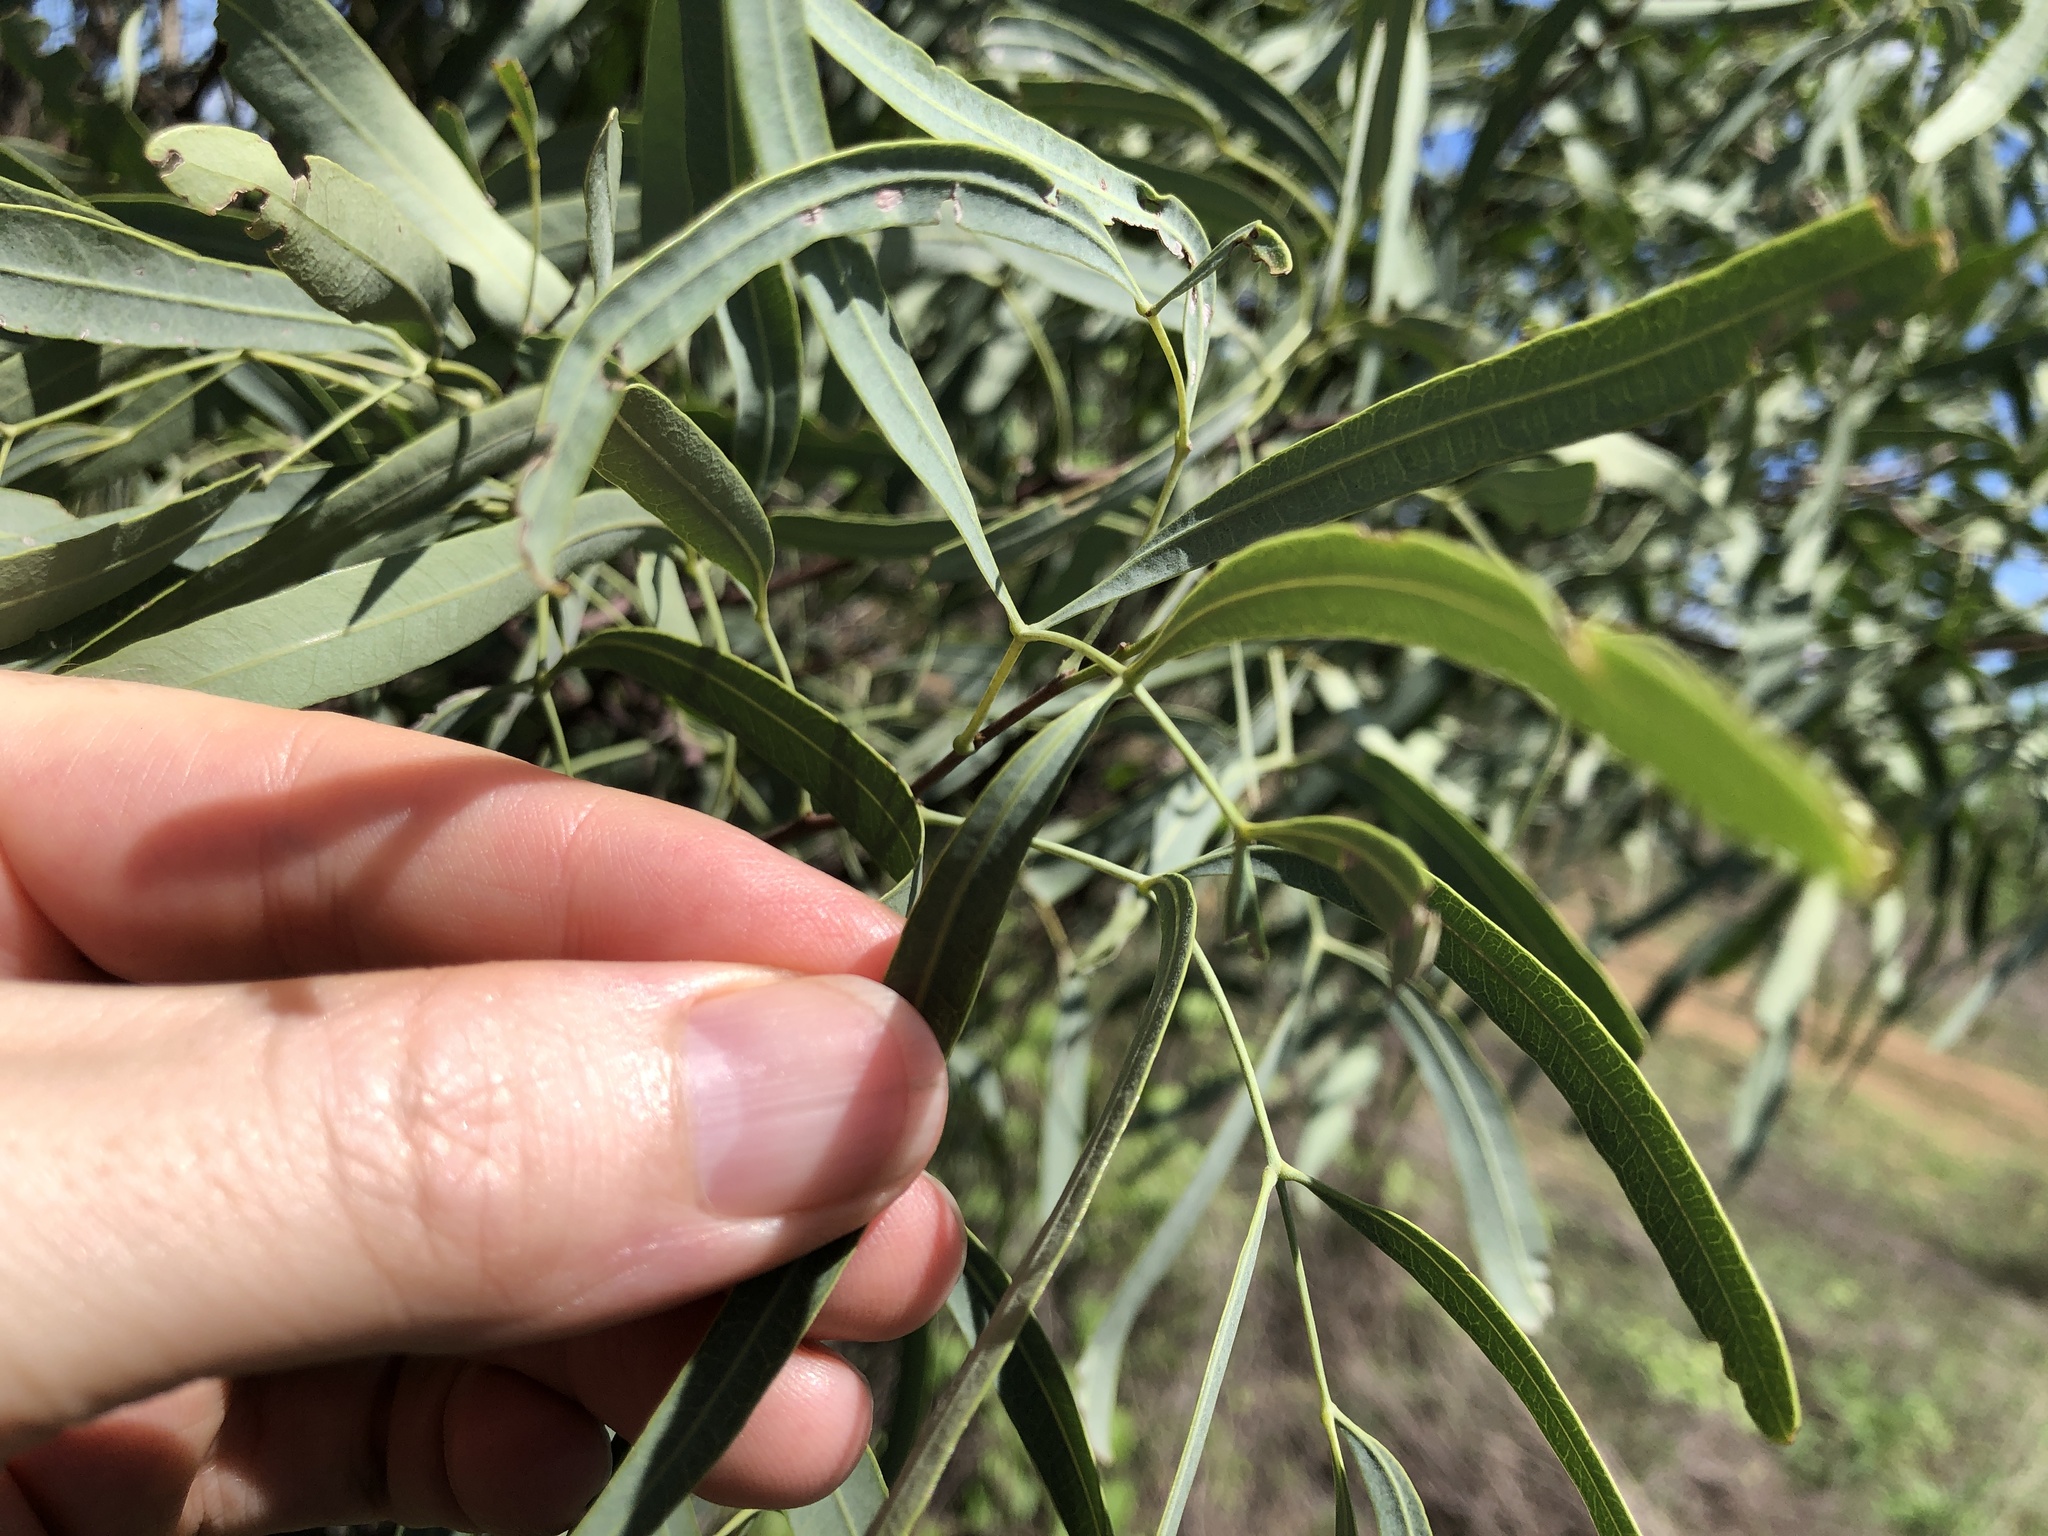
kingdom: Plantae
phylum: Tracheophyta
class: Magnoliopsida
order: Sapindales
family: Sapindaceae
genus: Atalaya
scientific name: Atalaya hemiglauca
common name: Western whitewood
